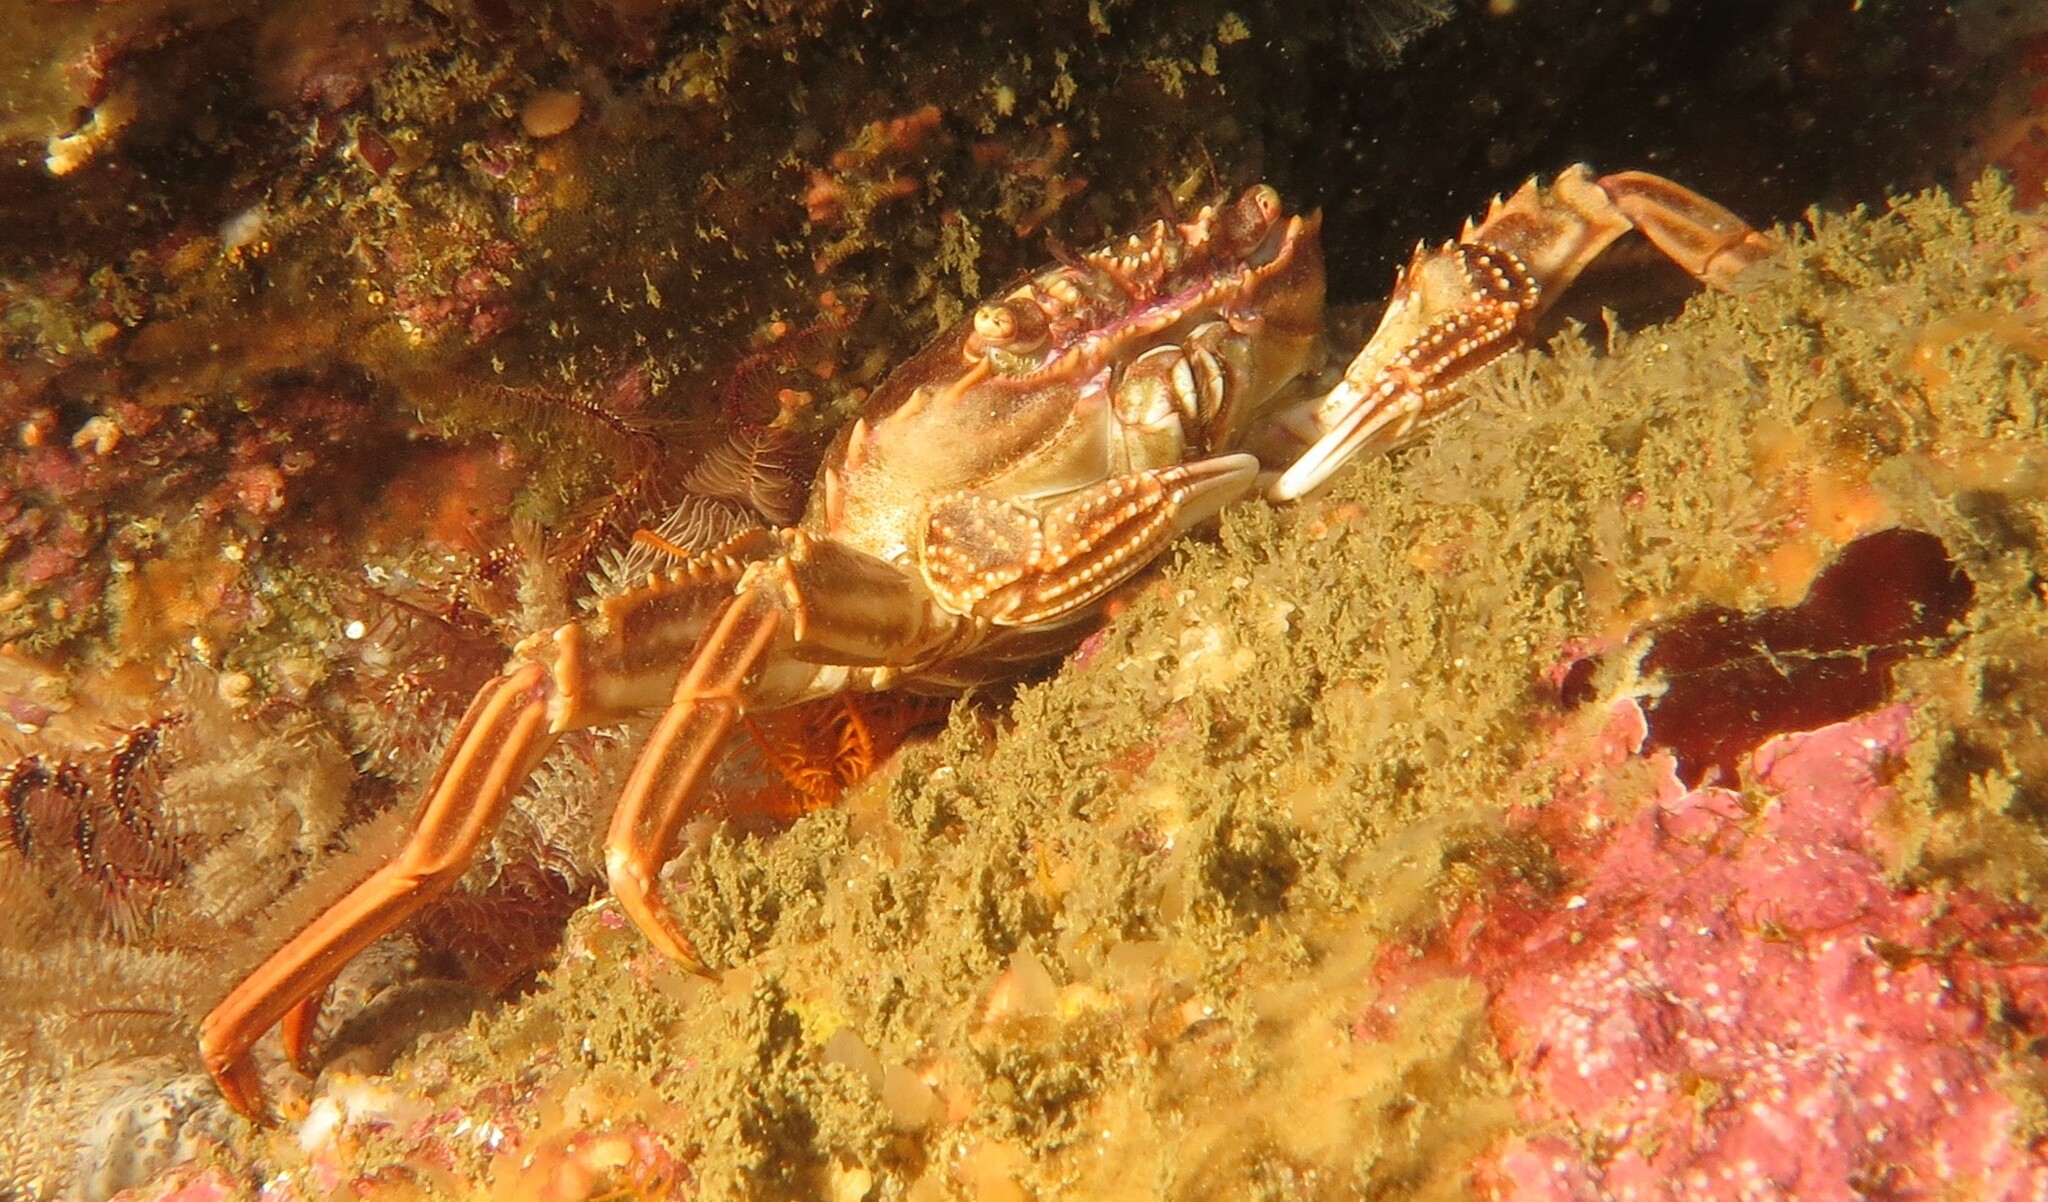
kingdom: Animalia
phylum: Arthropoda
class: Malacostraca
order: Decapoda
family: Plagusiidae
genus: Guinusia
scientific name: Guinusia chabrus
